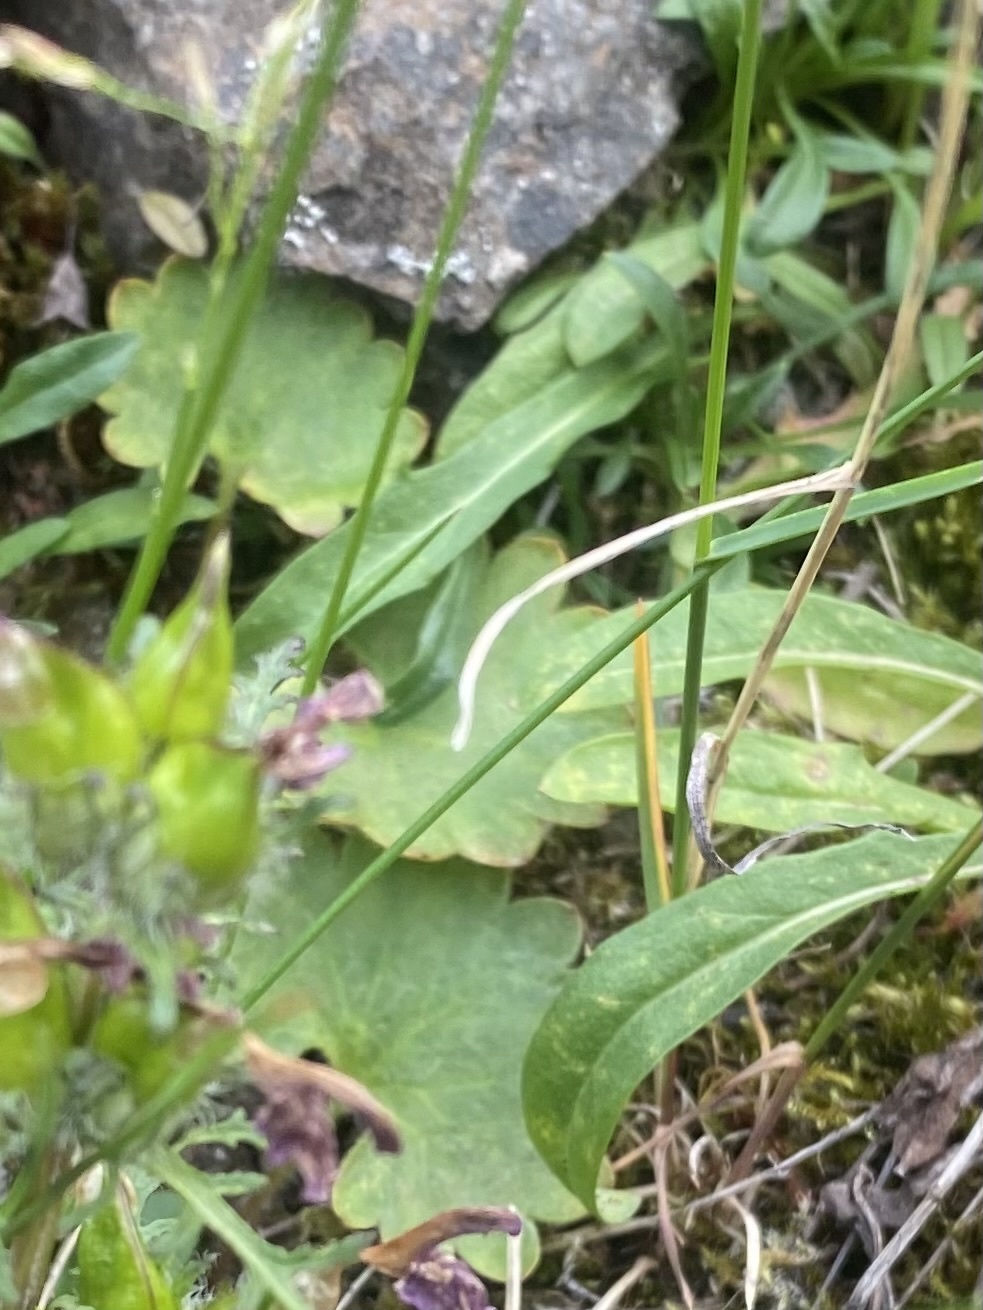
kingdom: Plantae
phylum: Tracheophyta
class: Magnoliopsida
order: Saxifragales
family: Saxifragaceae
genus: Micranthes
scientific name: Micranthes nelsoniana
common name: Nelson's saxifrage
